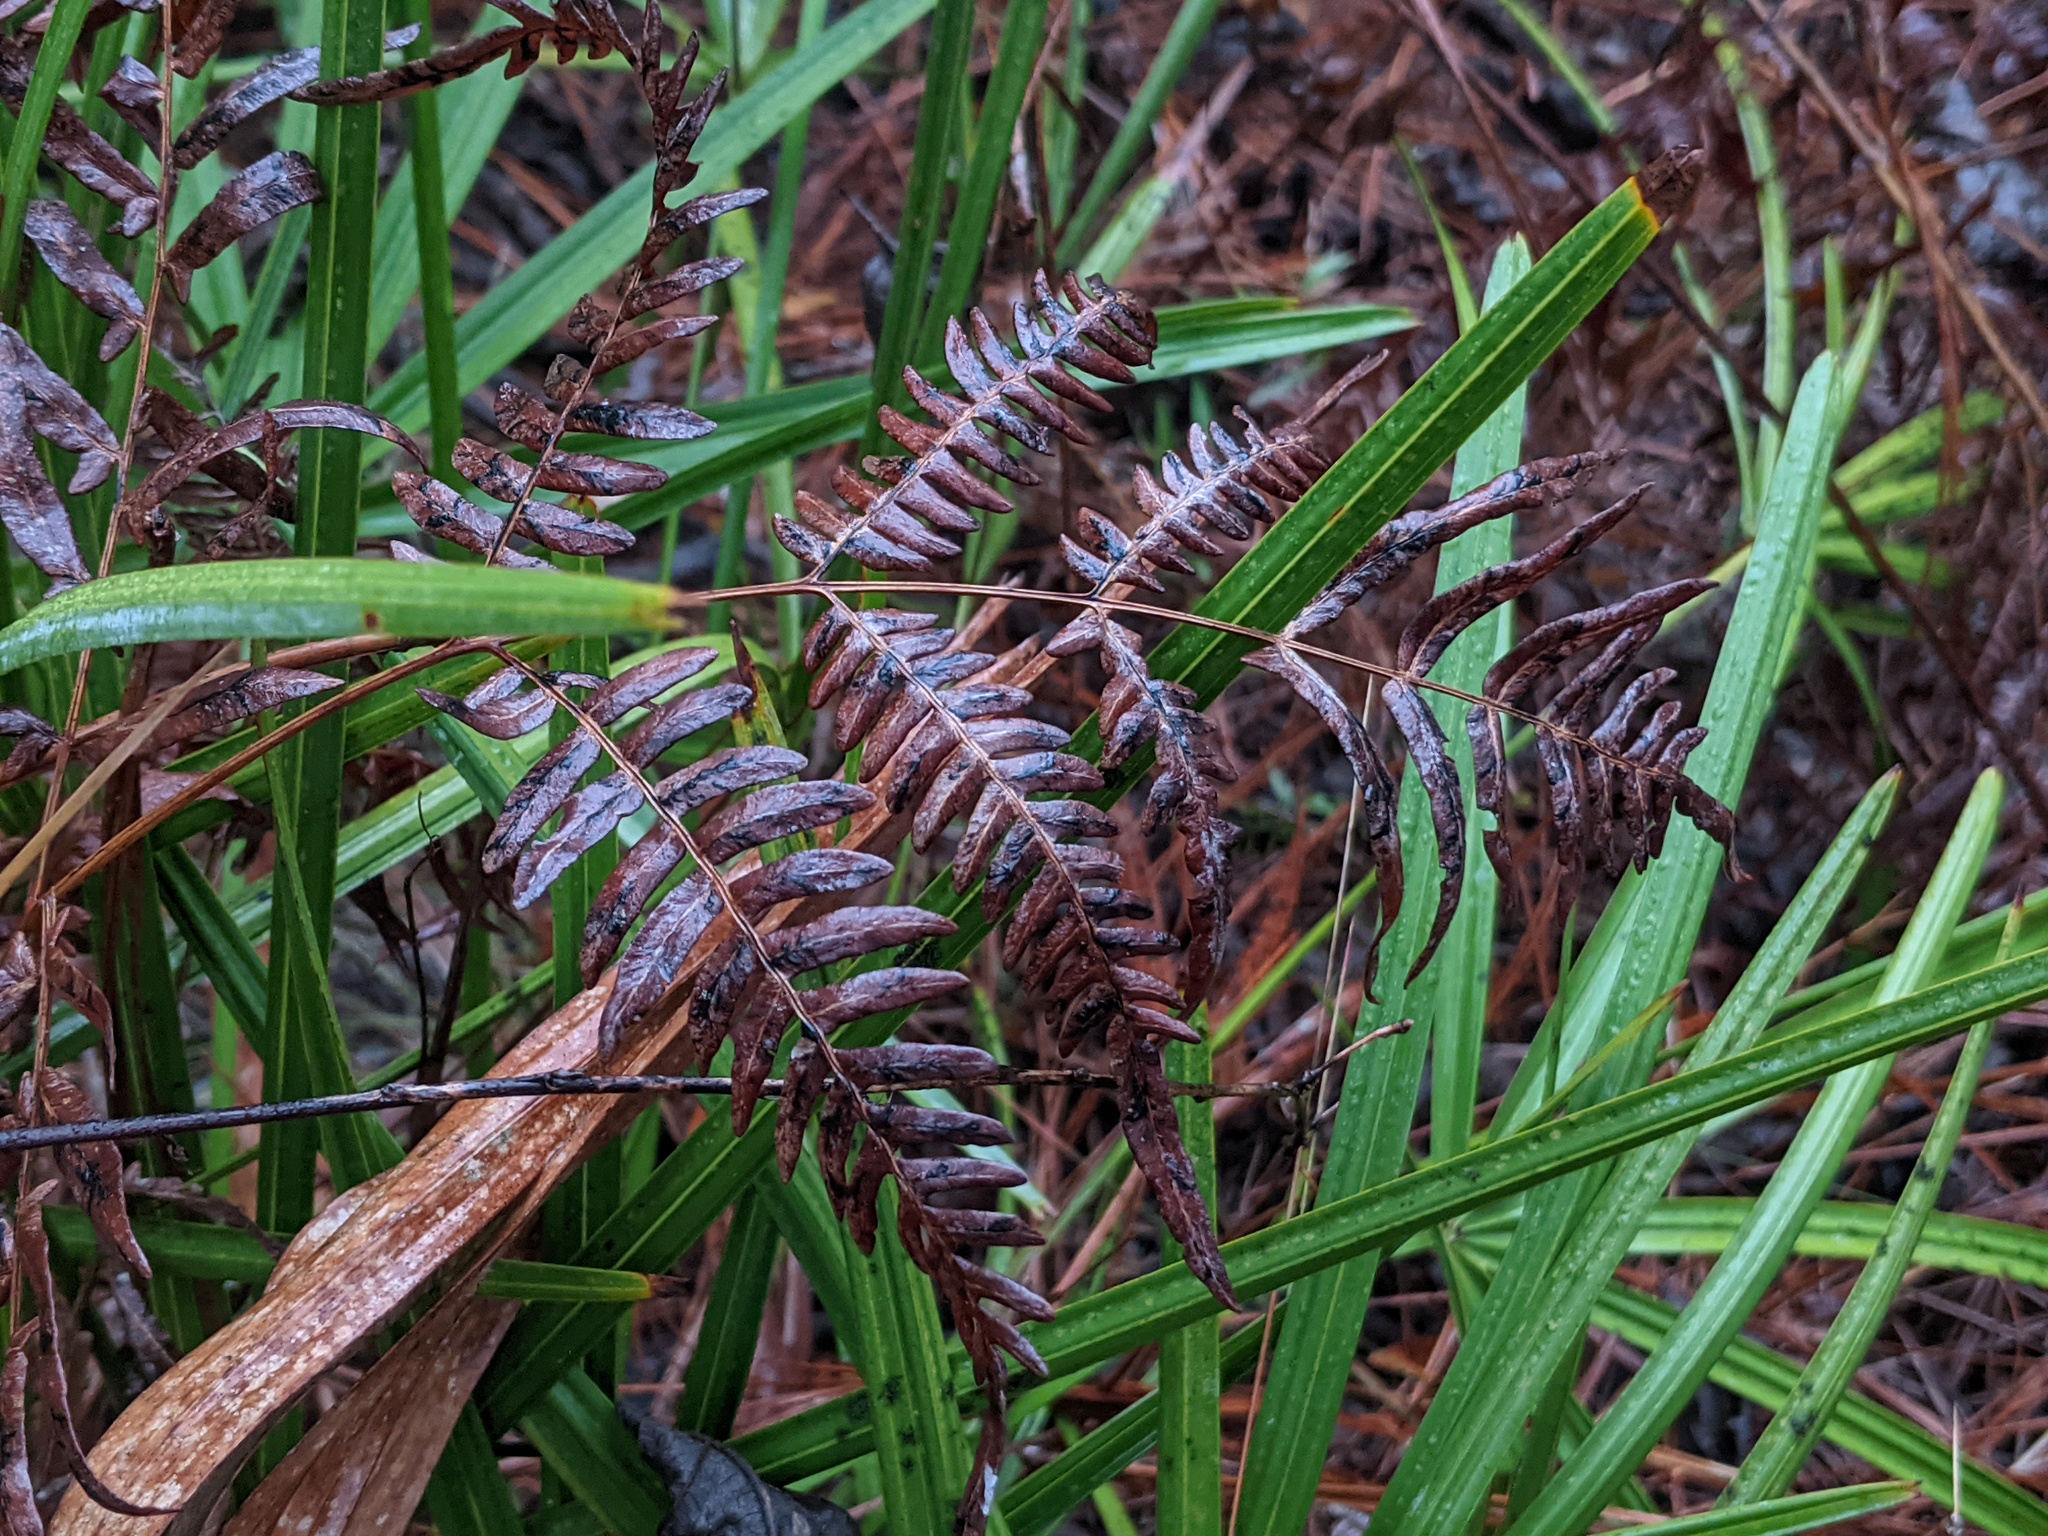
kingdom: Plantae
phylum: Tracheophyta
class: Polypodiopsida
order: Polypodiales
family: Dennstaedtiaceae
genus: Pteridium
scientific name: Pteridium
